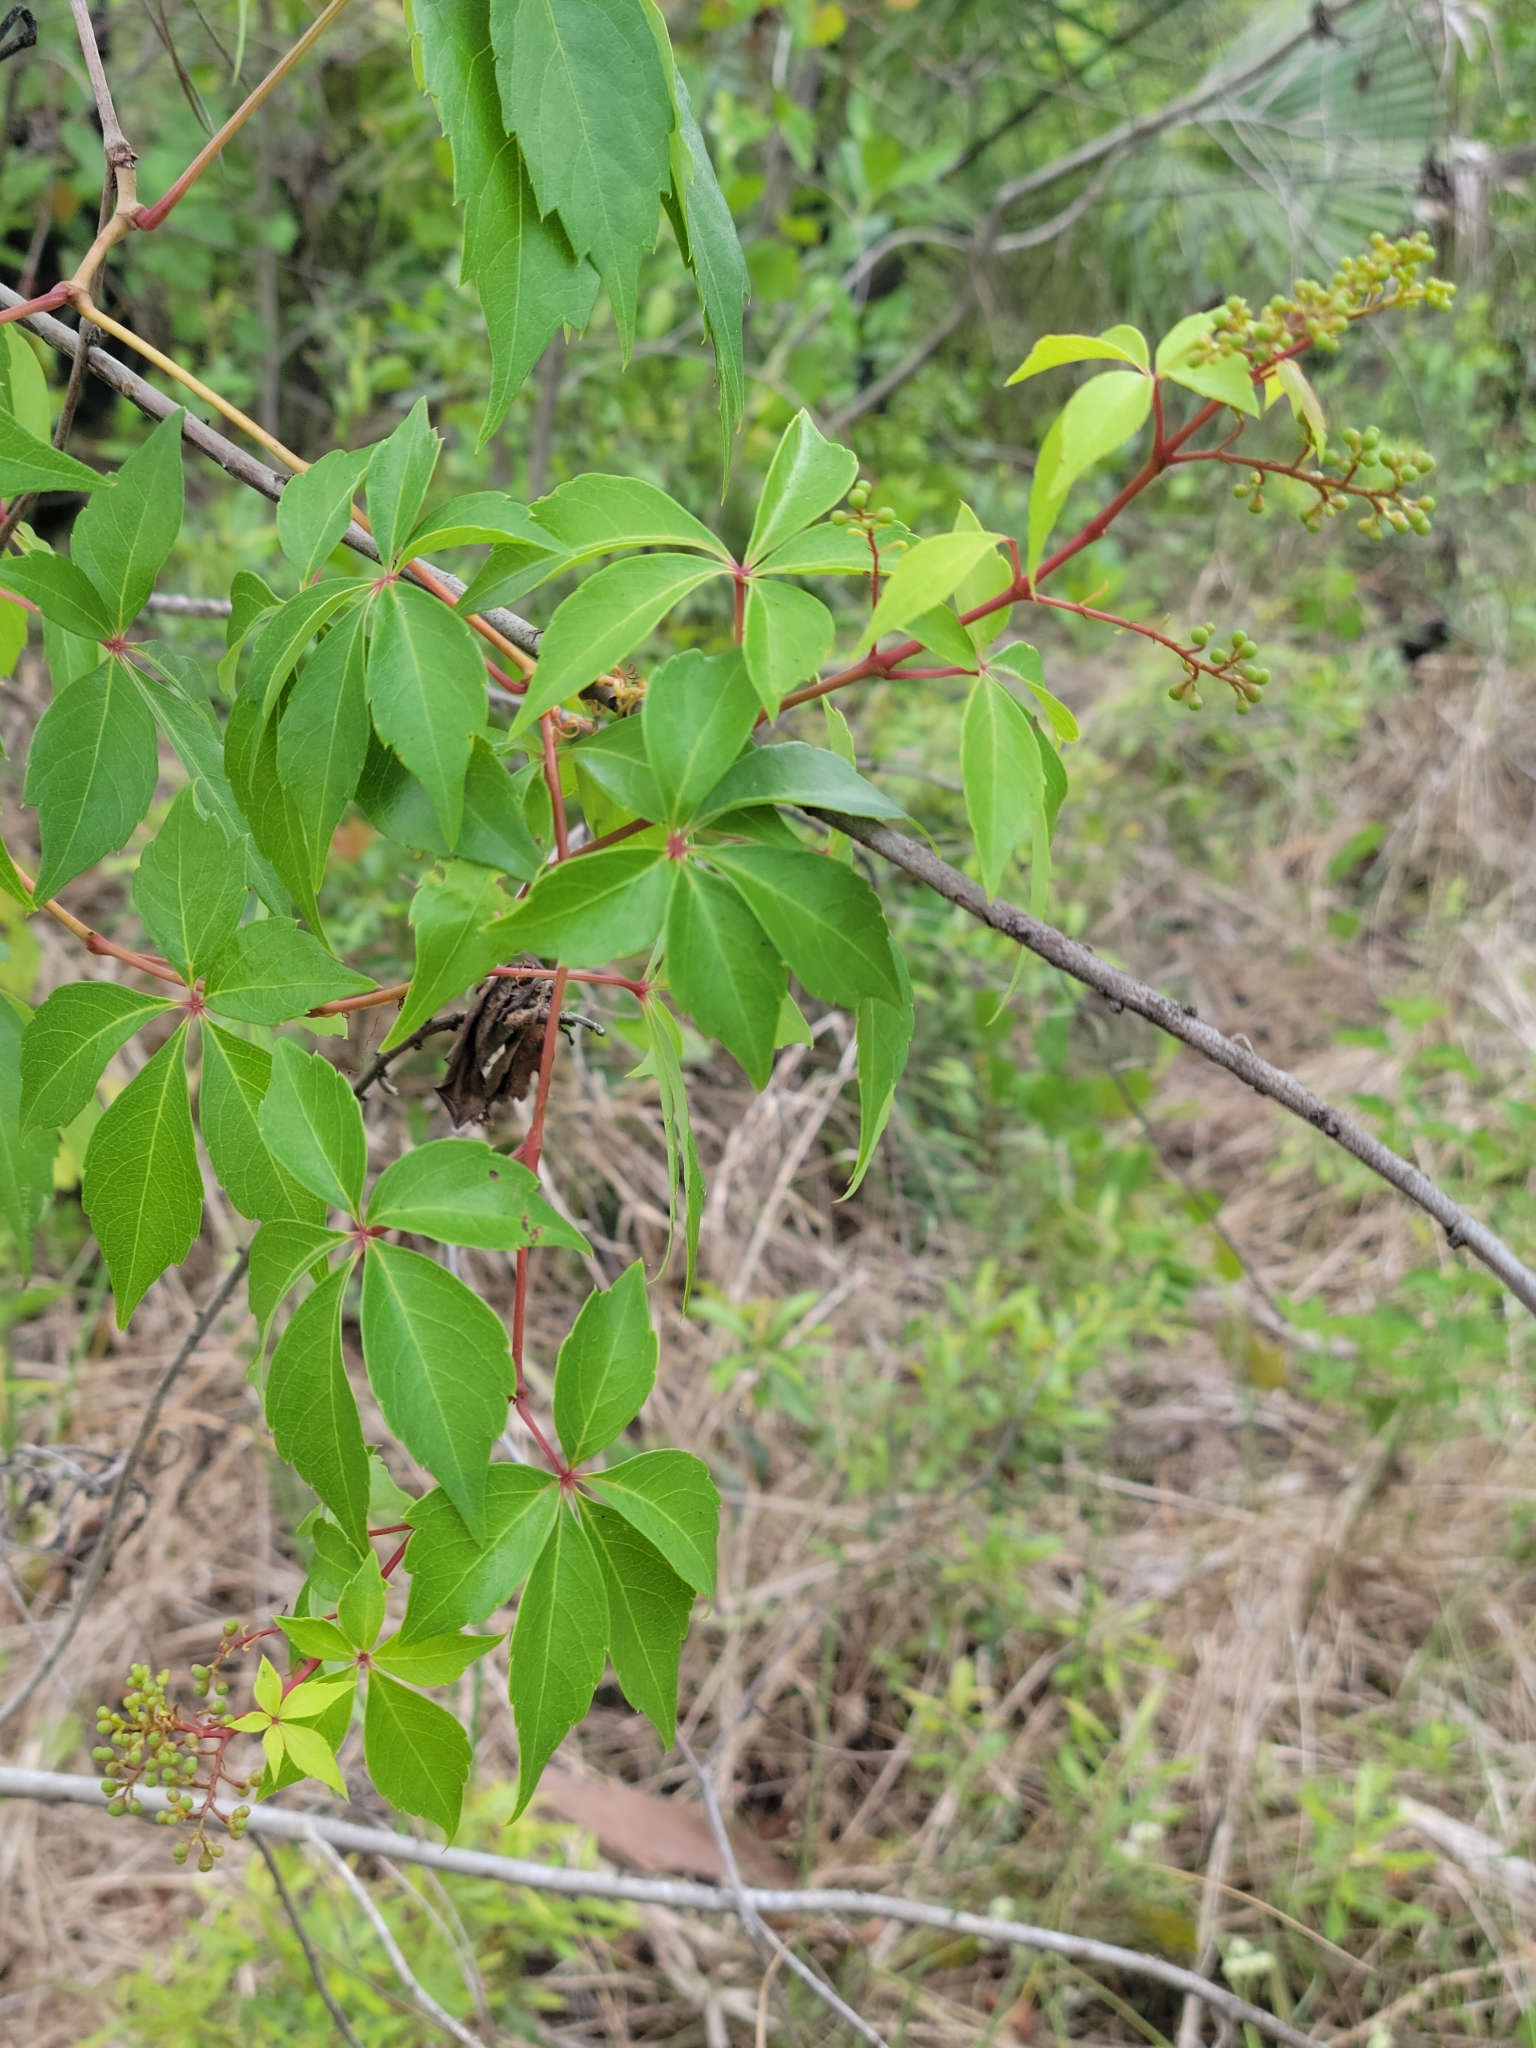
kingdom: Plantae
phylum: Tracheophyta
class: Magnoliopsida
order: Vitales
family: Vitaceae
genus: Parthenocissus
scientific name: Parthenocissus quinquefolia
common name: Virginia-creeper
